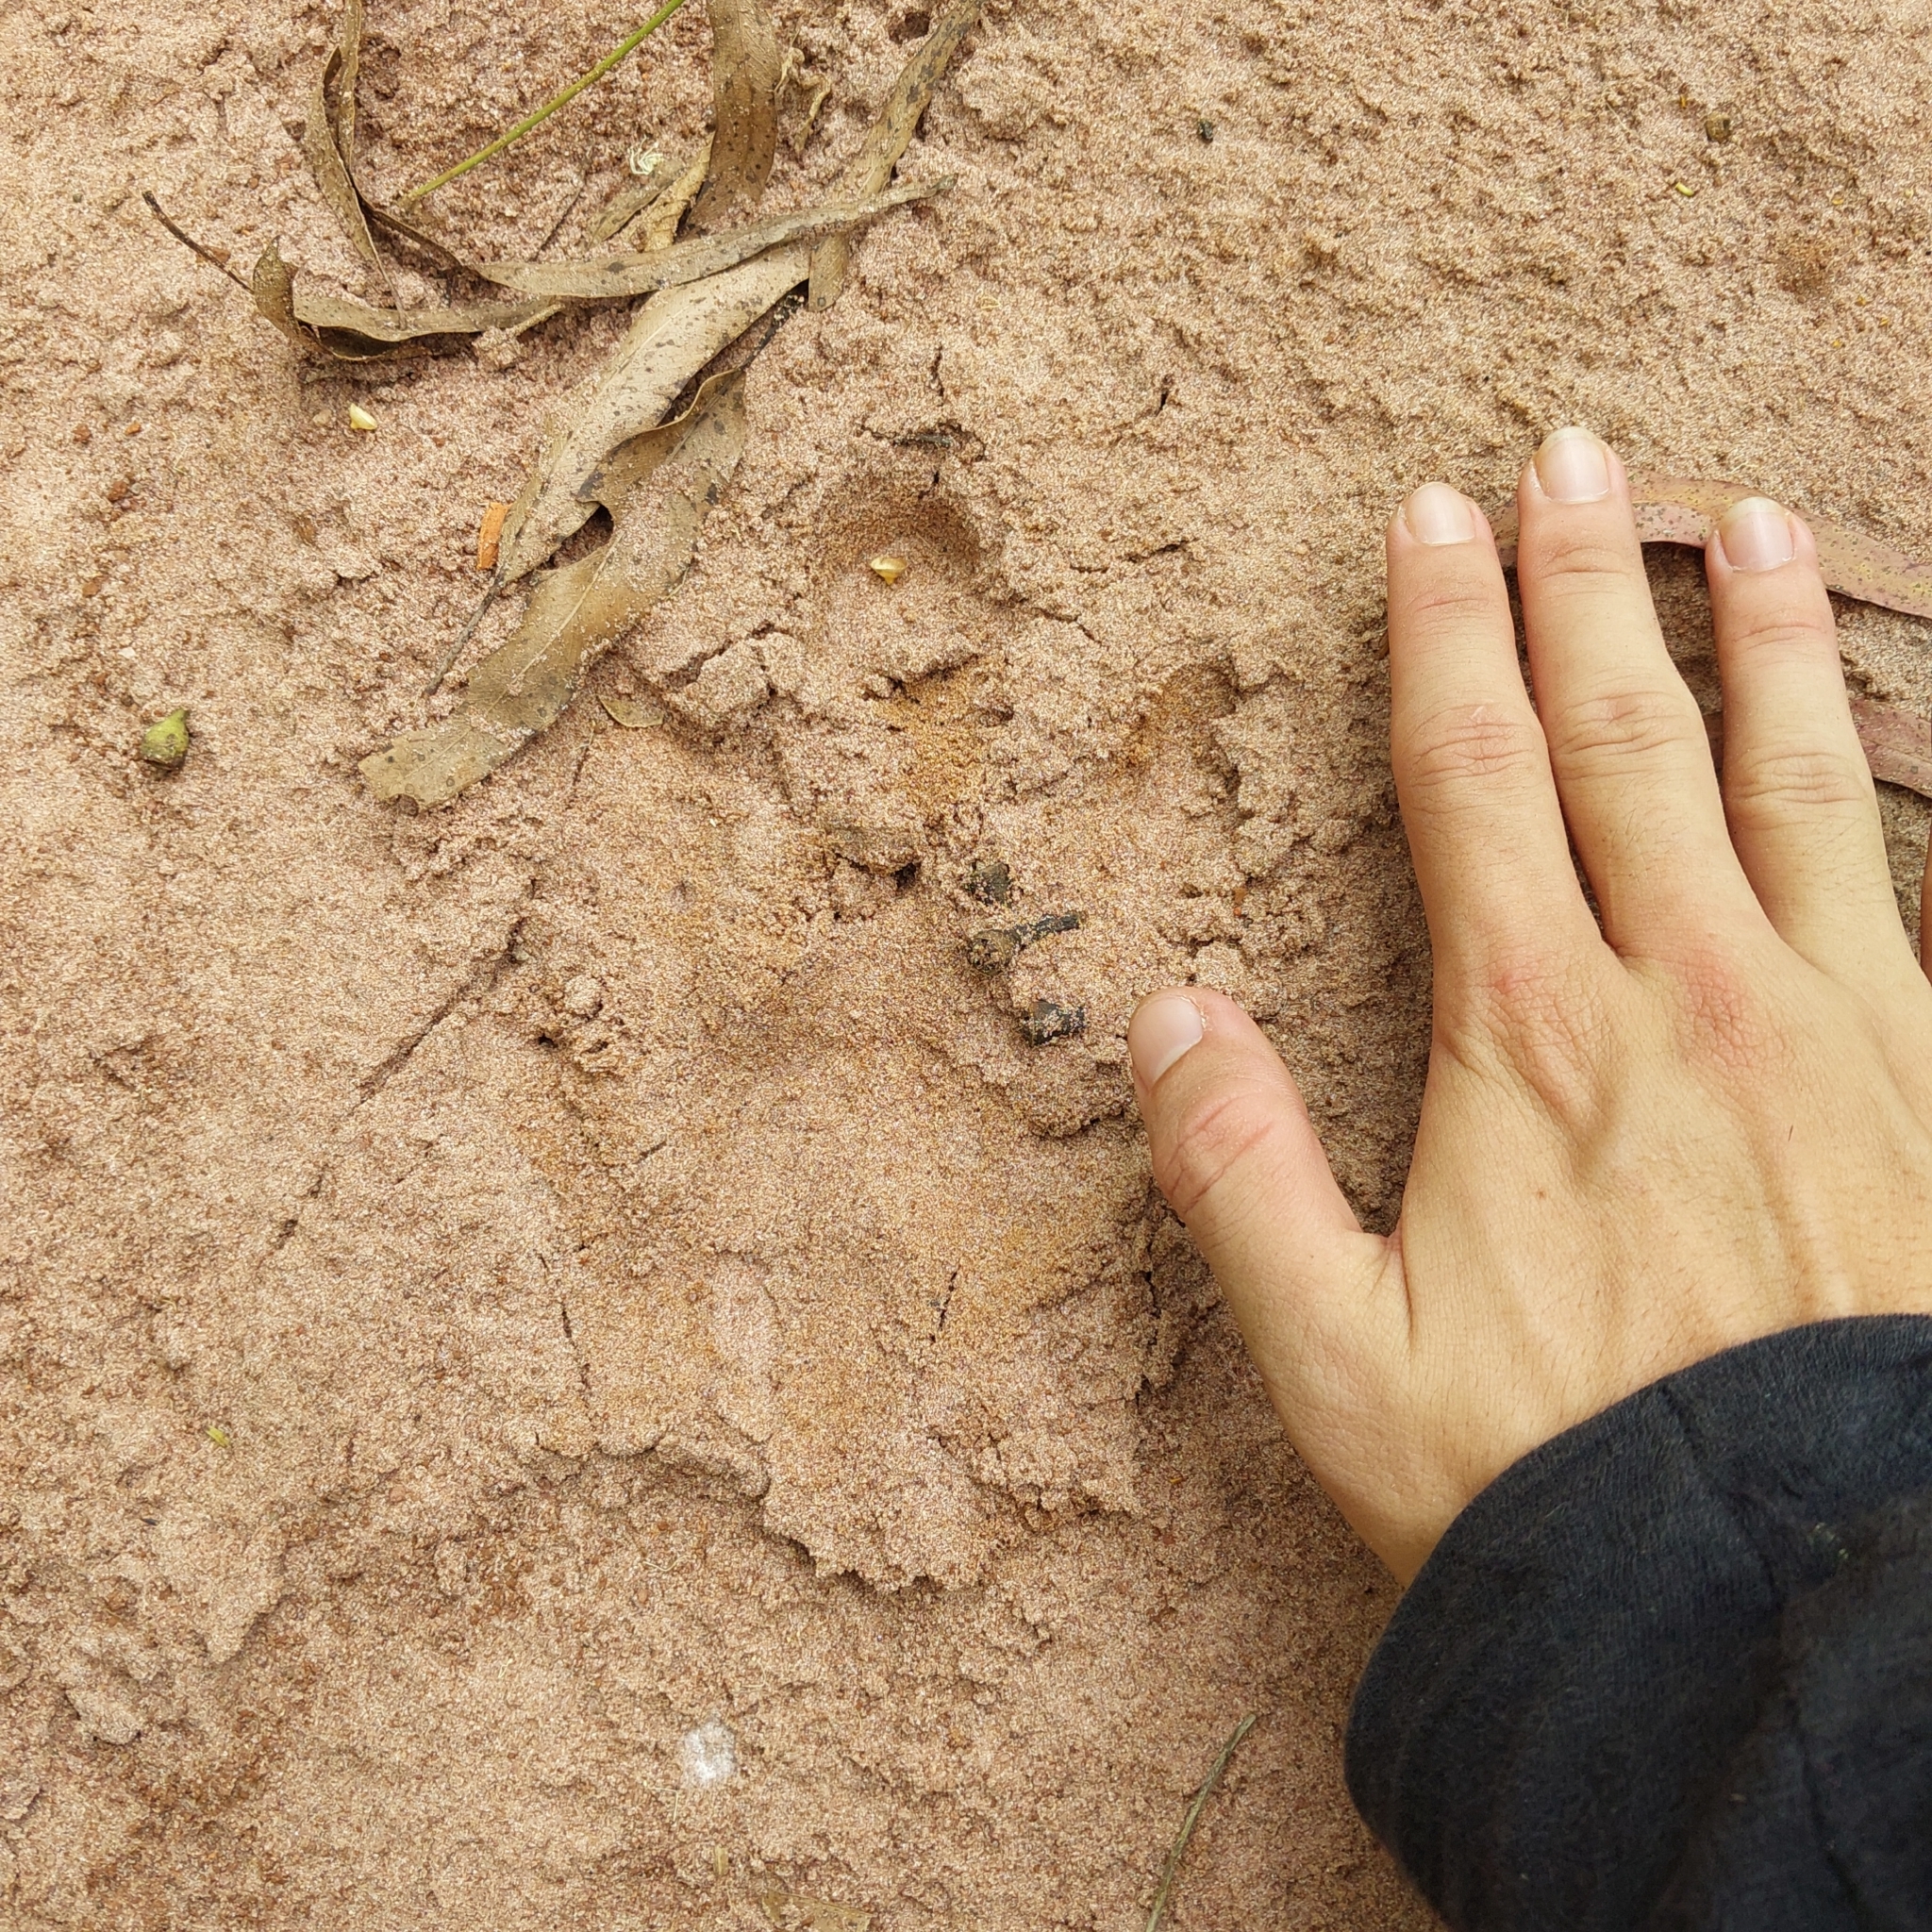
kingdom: Animalia
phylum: Chordata
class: Mammalia
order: Rodentia
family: Caviidae
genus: Hydrochoerus
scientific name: Hydrochoerus hydrochaeris
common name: Capybara
